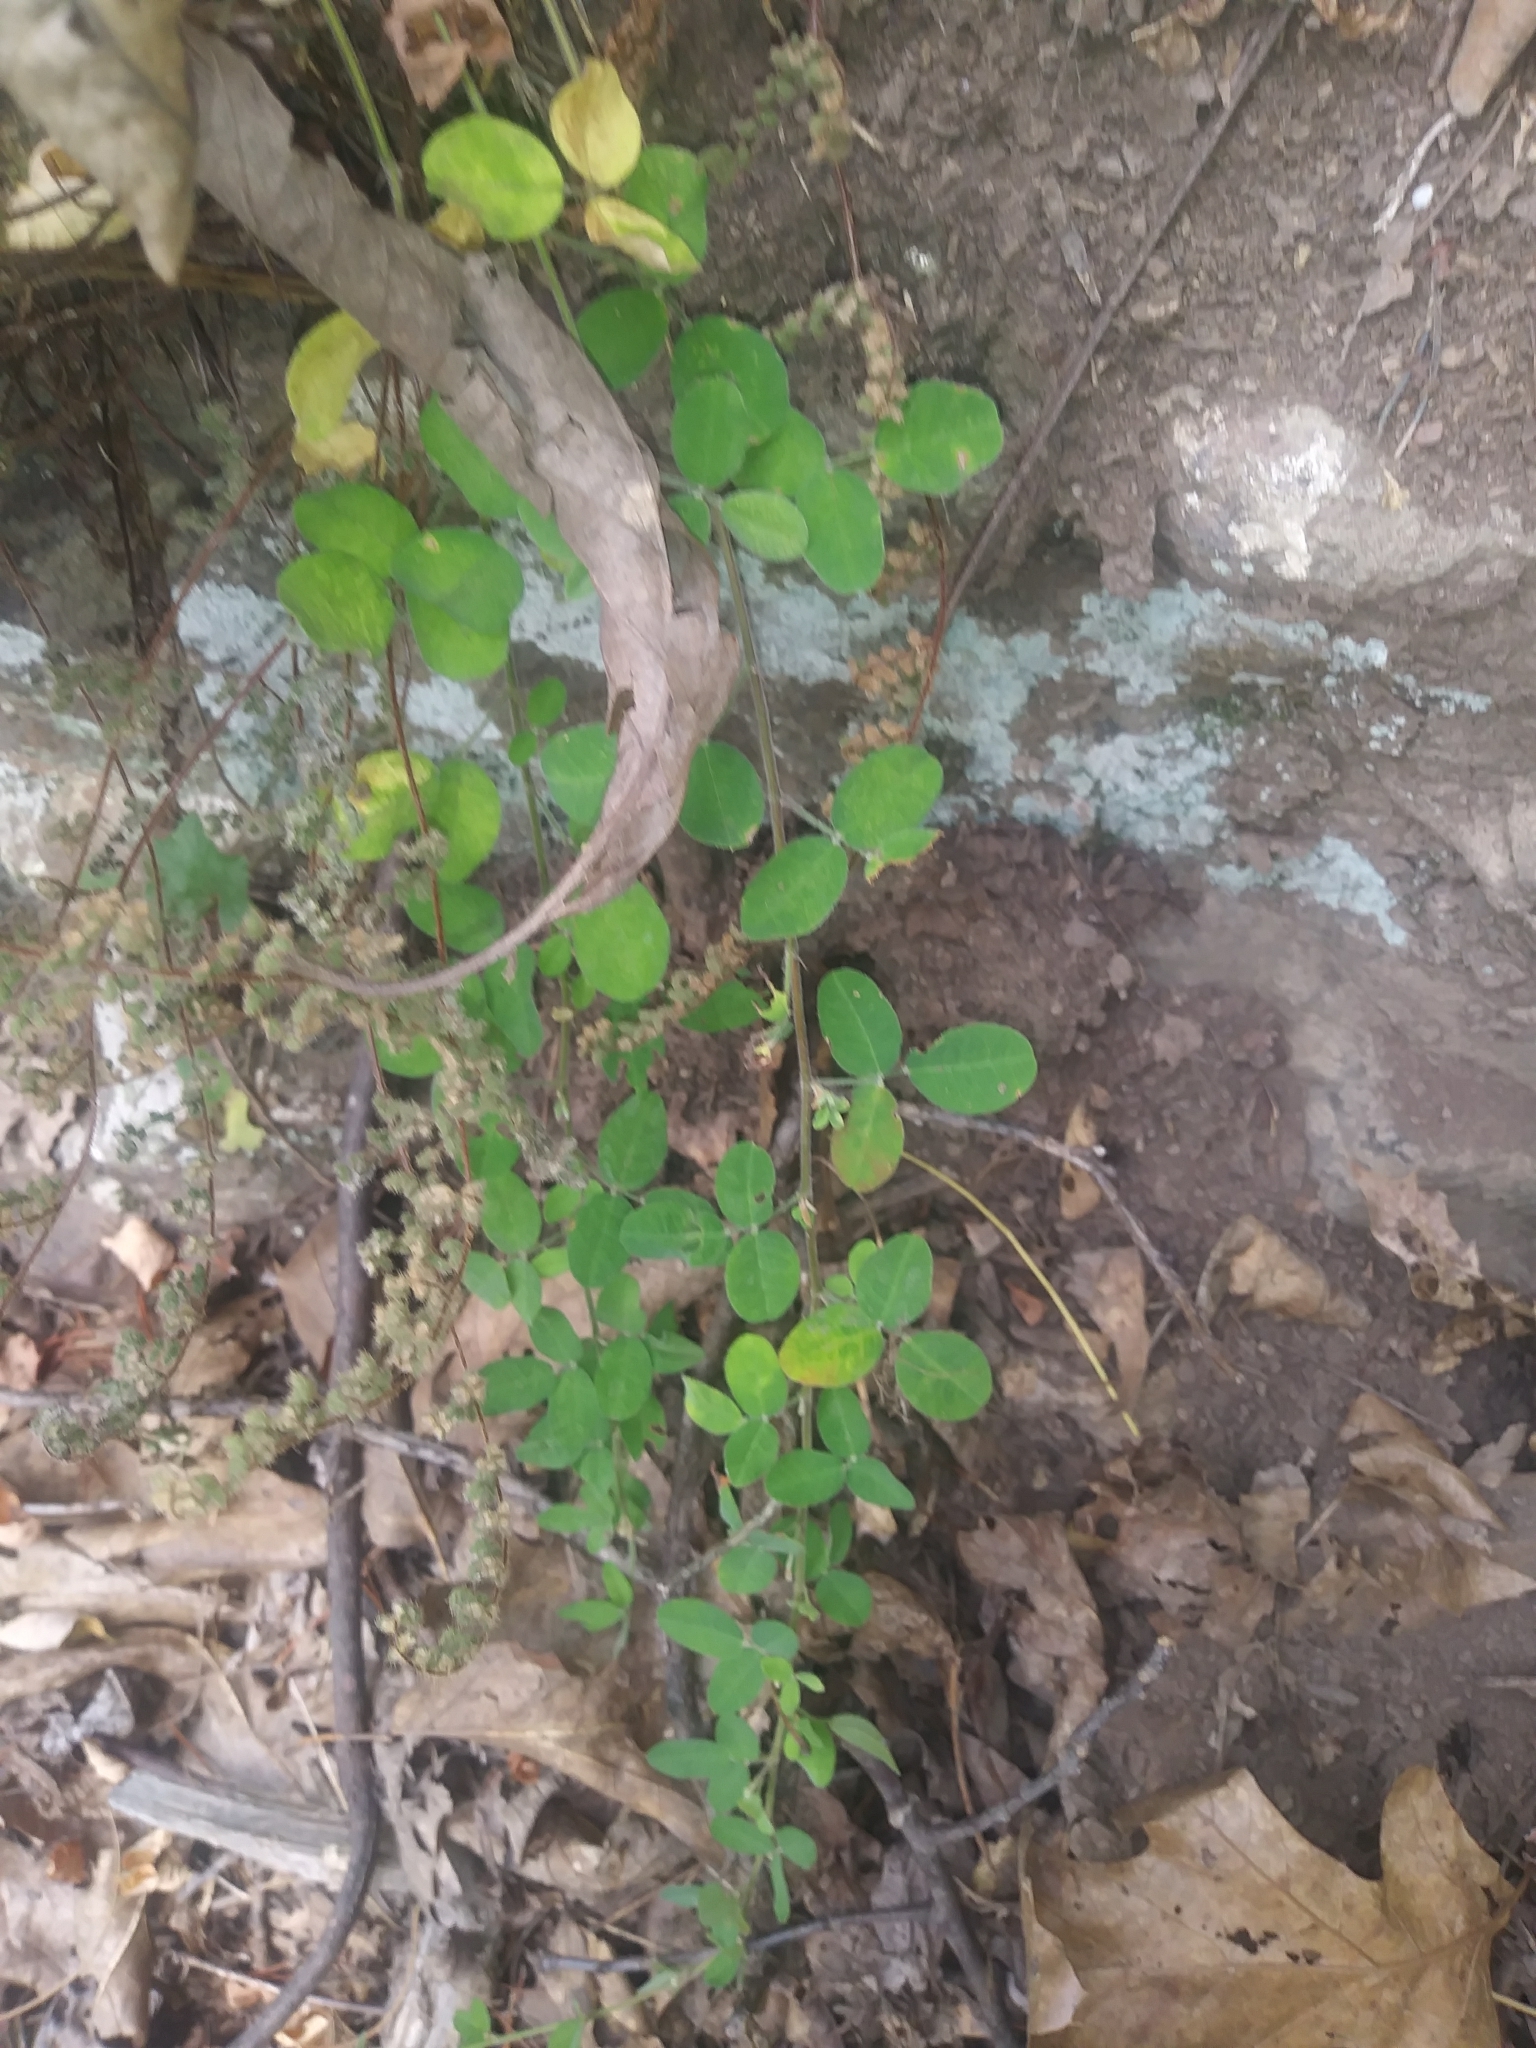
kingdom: Plantae
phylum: Tracheophyta
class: Magnoliopsida
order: Fabales
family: Fabaceae
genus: Lespedeza
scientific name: Lespedeza procumbens
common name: Downy trailing bush-clover
